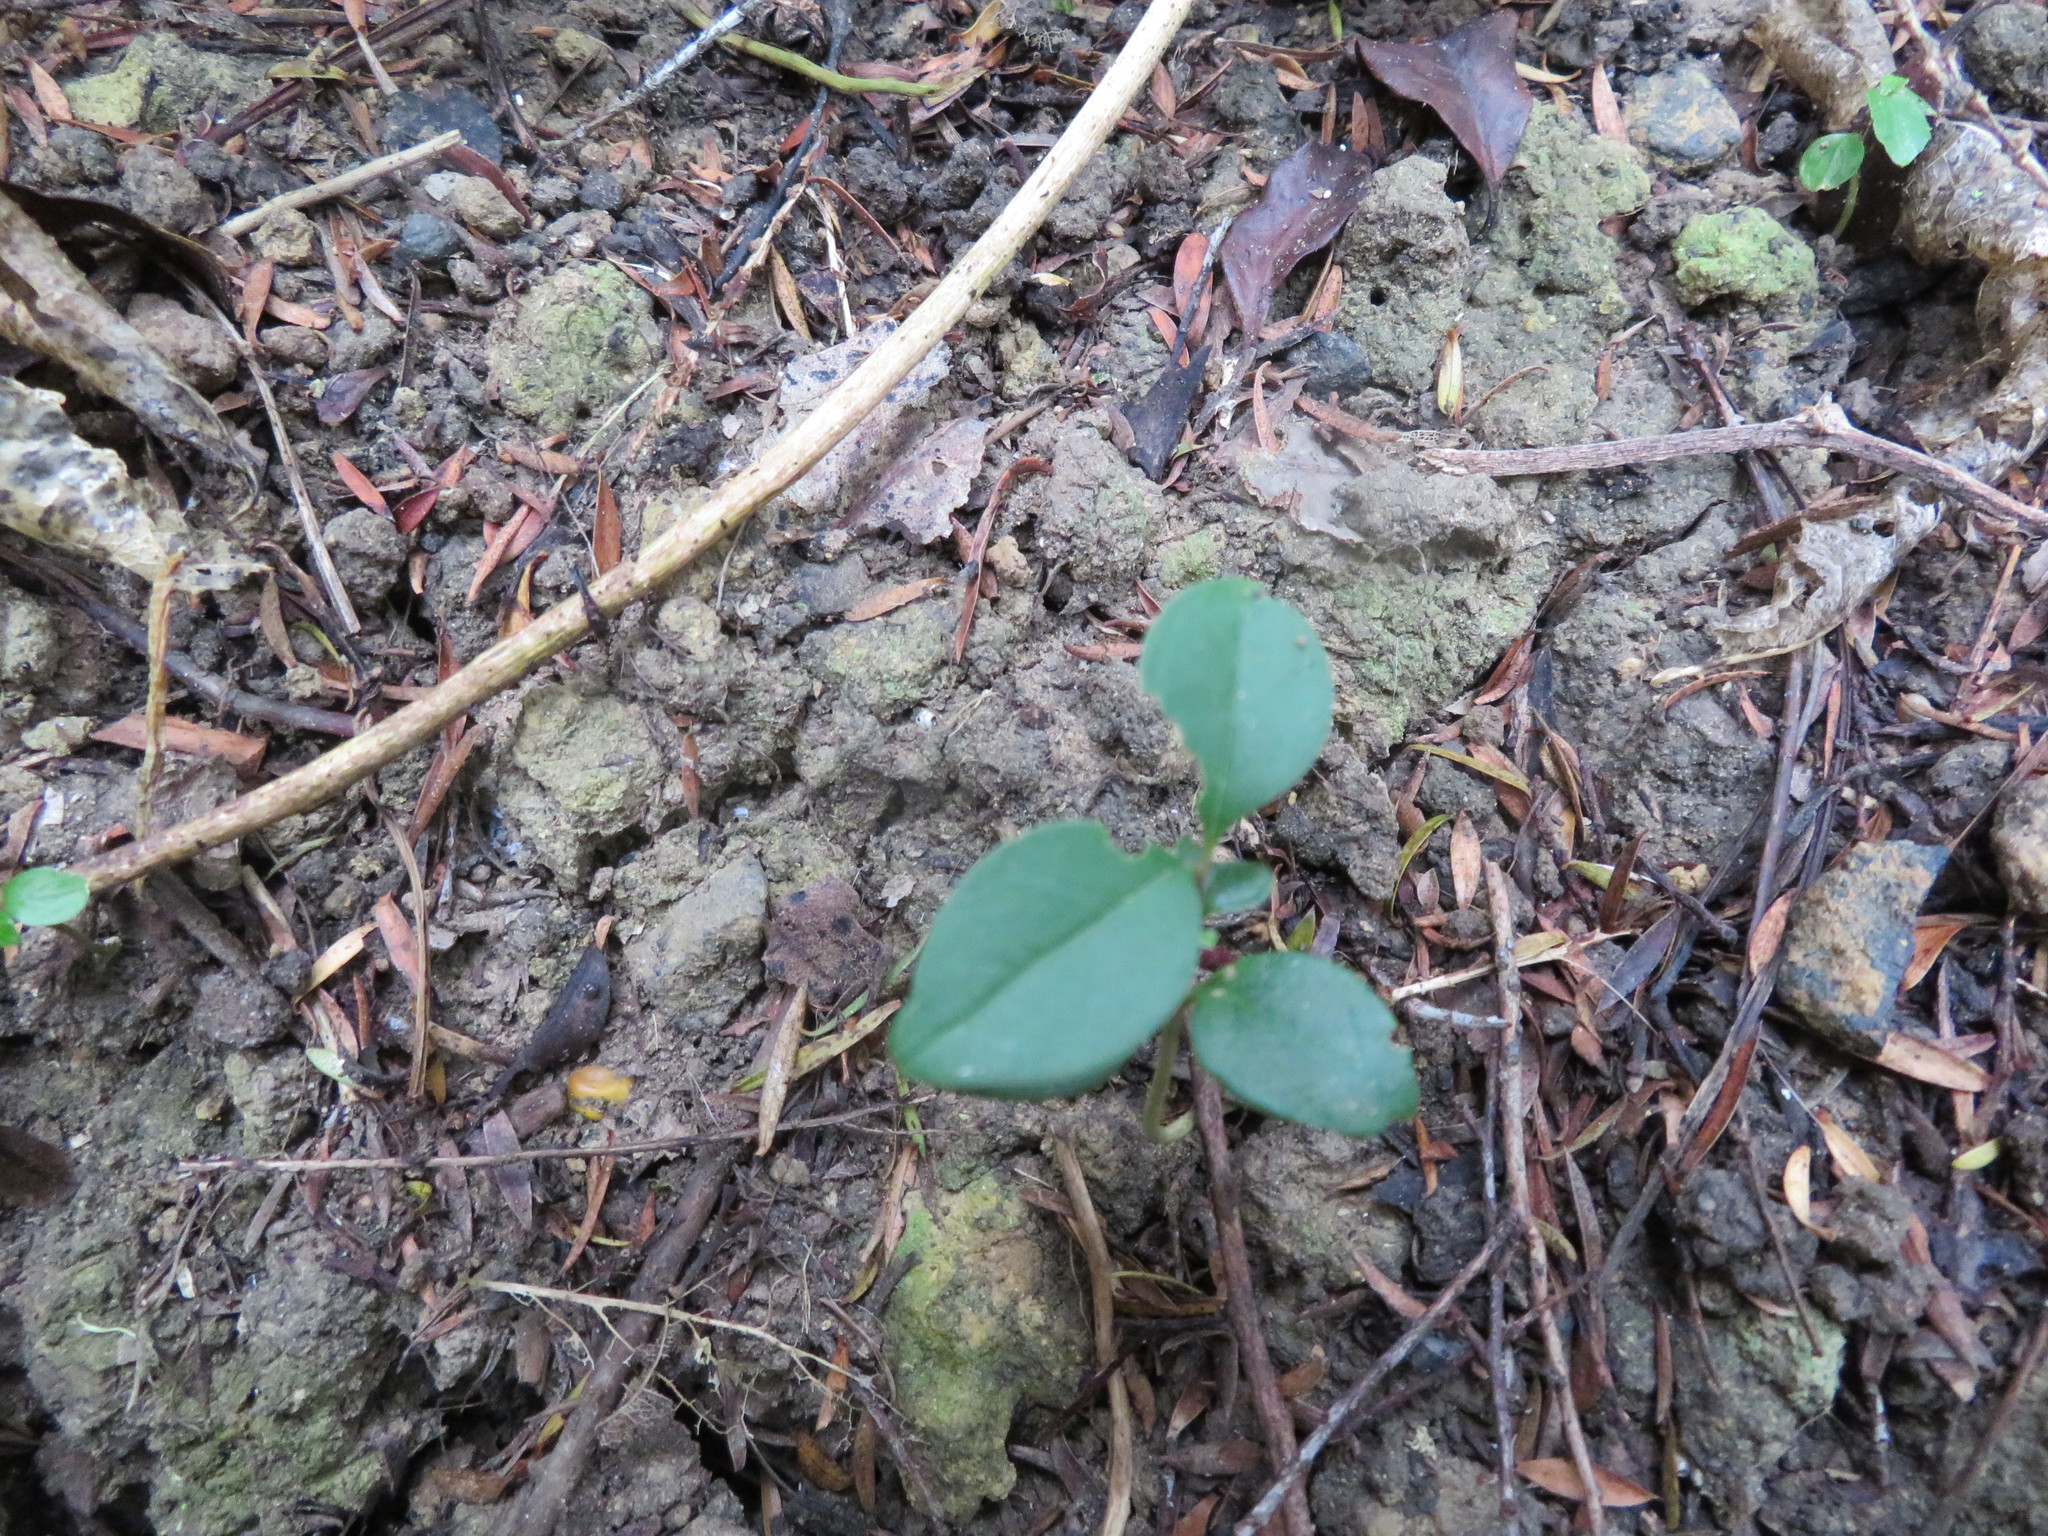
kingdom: Plantae
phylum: Tracheophyta
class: Magnoliopsida
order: Lamiales
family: Oleaceae
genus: Ligustrum
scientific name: Ligustrum lucidum
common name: Glossy privet
